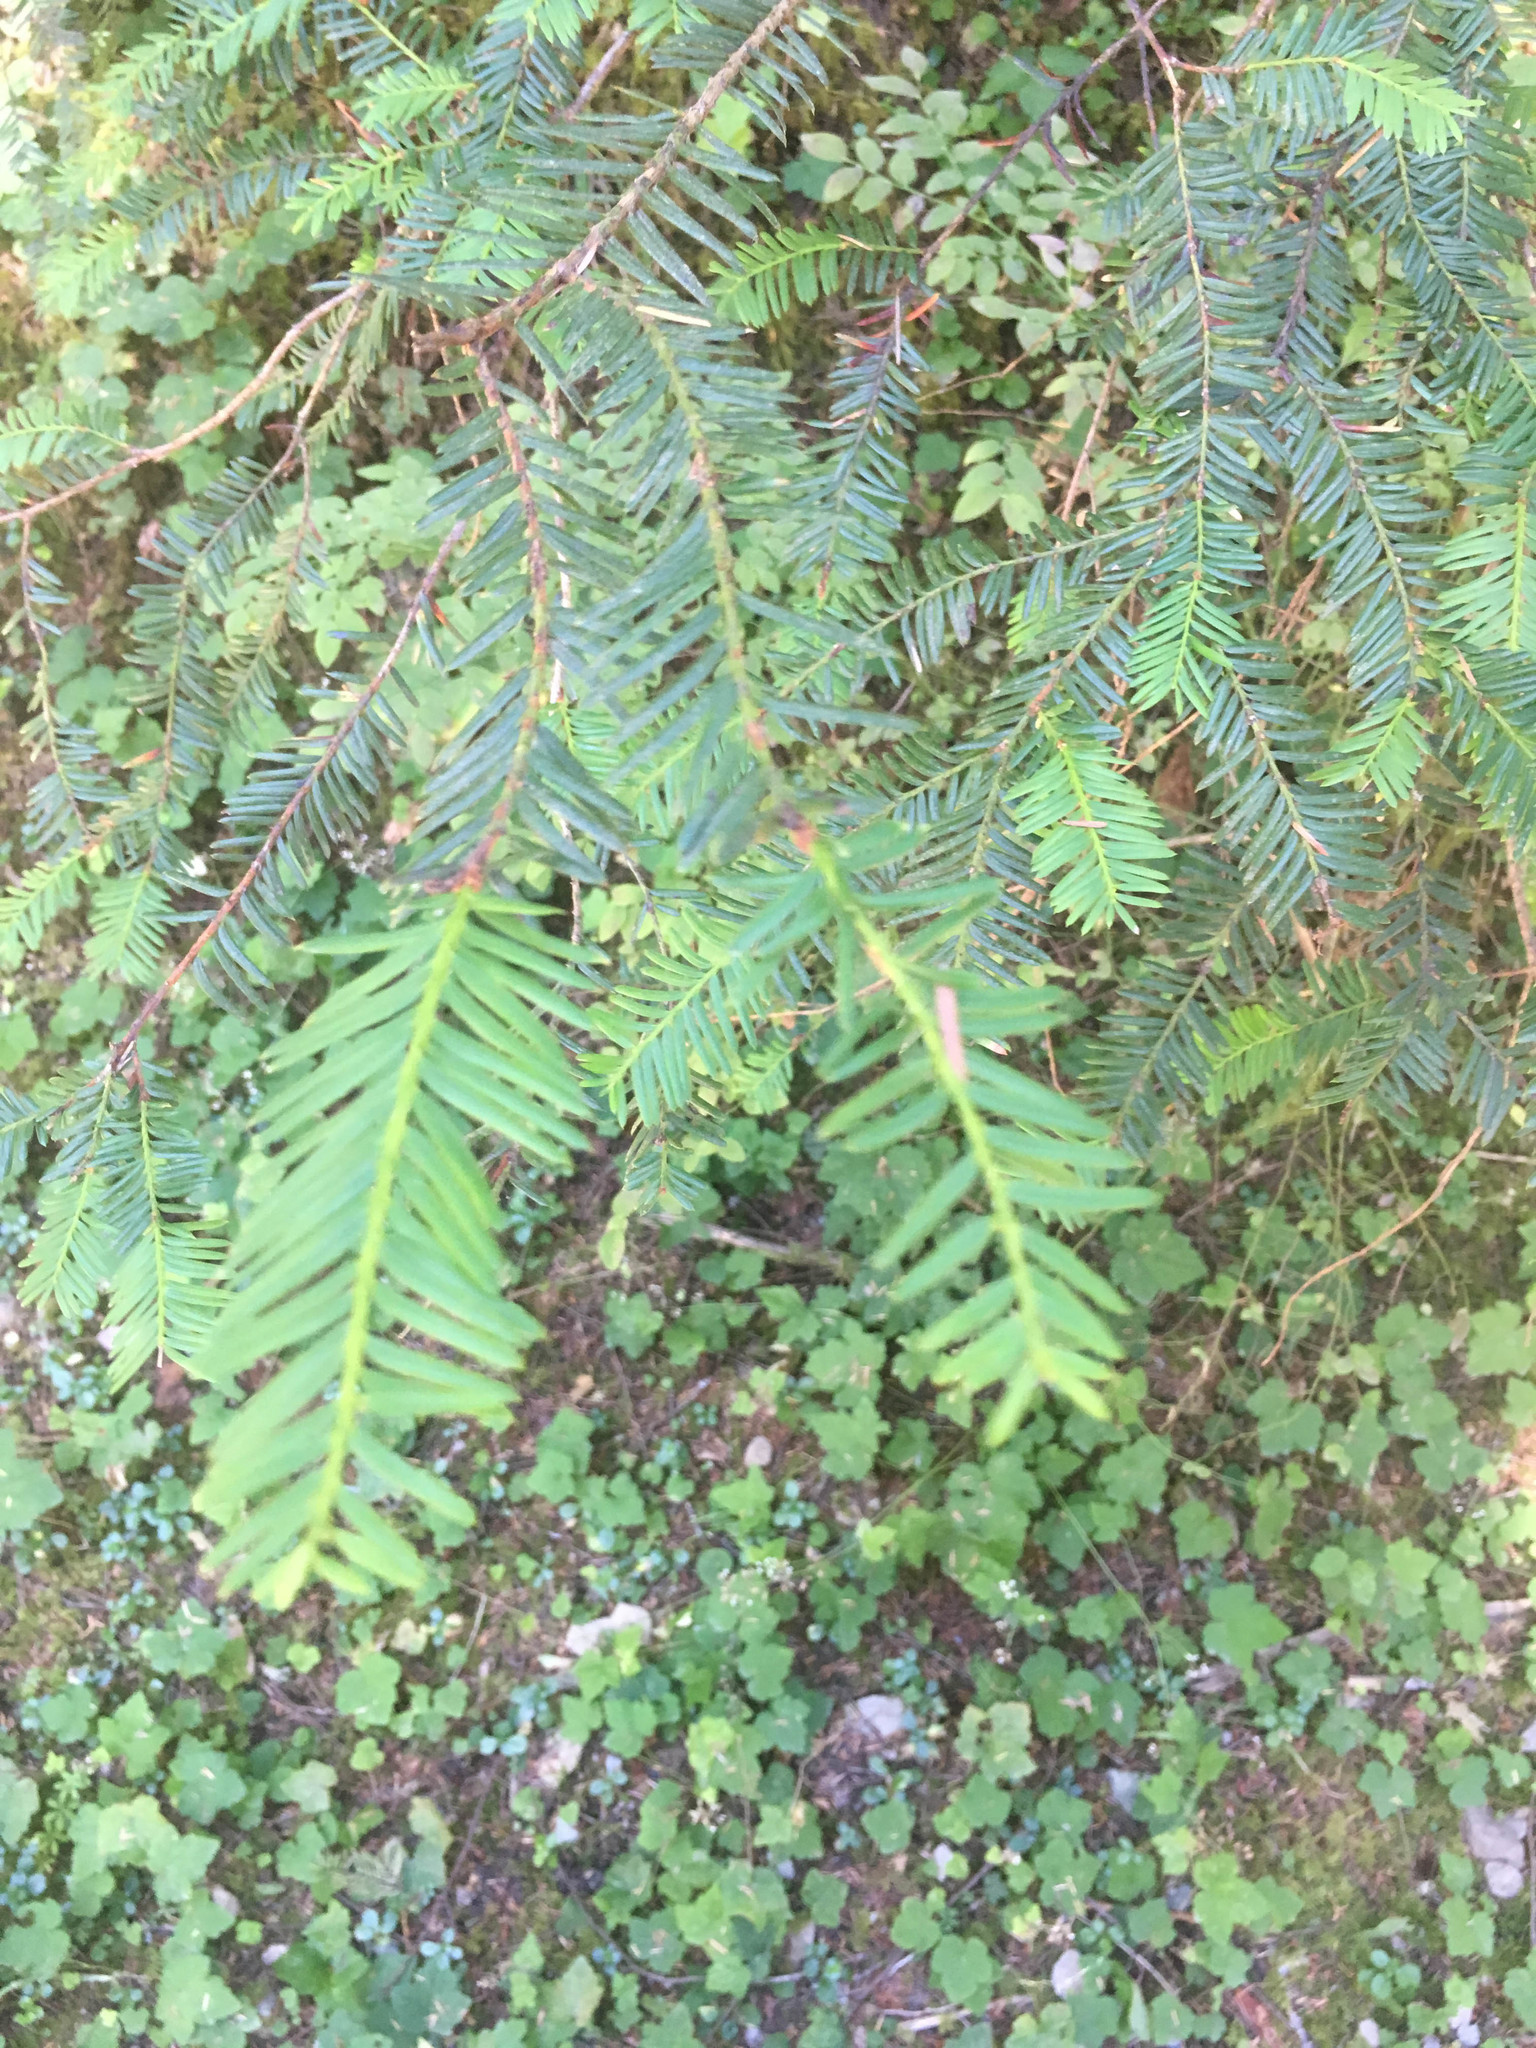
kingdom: Plantae
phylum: Tracheophyta
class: Pinopsida
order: Pinales
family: Taxaceae
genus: Taxus
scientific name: Taxus brevifolia
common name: Pacific yew
